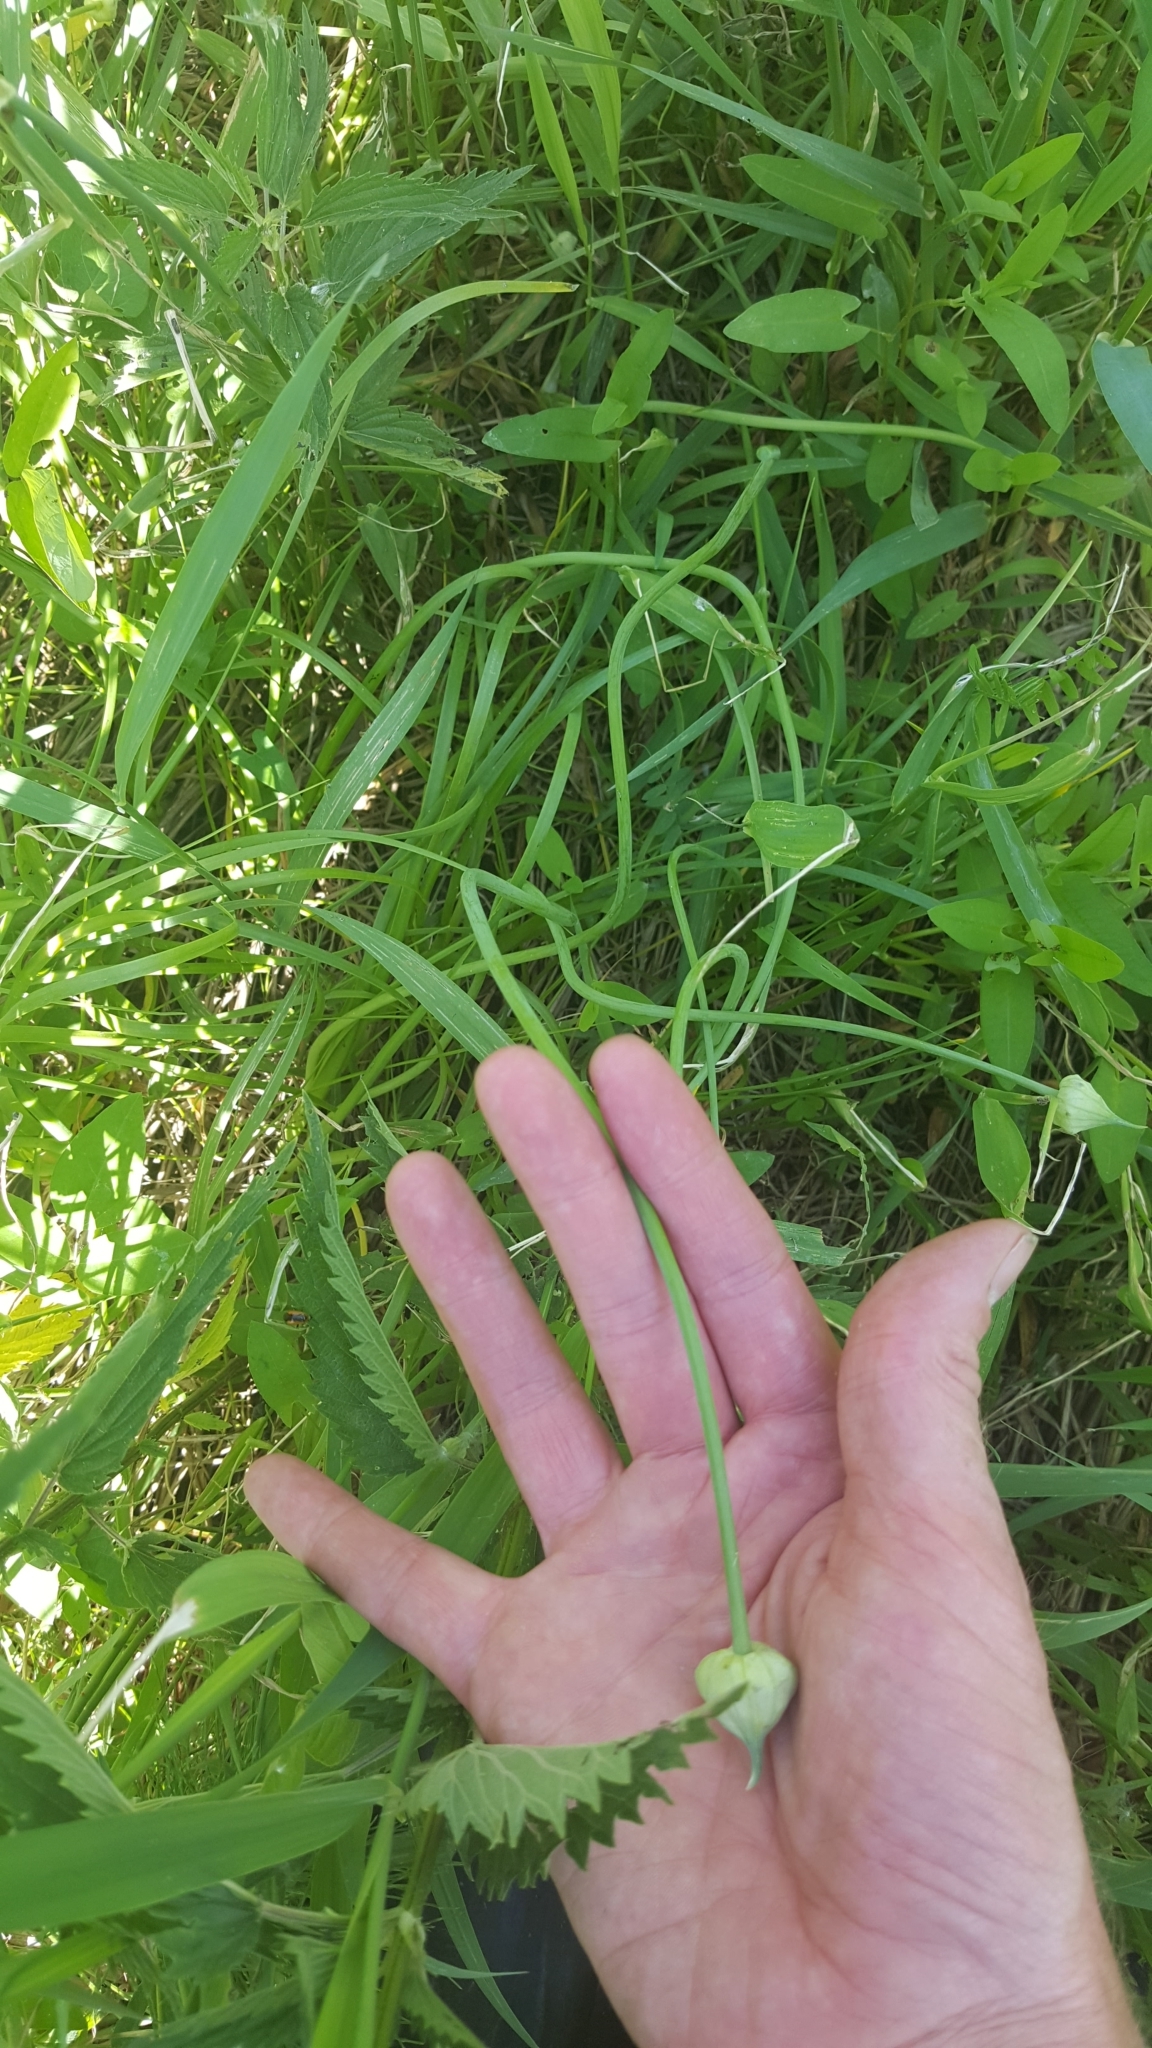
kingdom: Plantae
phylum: Tracheophyta
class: Liliopsida
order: Asparagales
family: Amaryllidaceae
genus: Allium
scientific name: Allium canadense
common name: Meadow garlic
